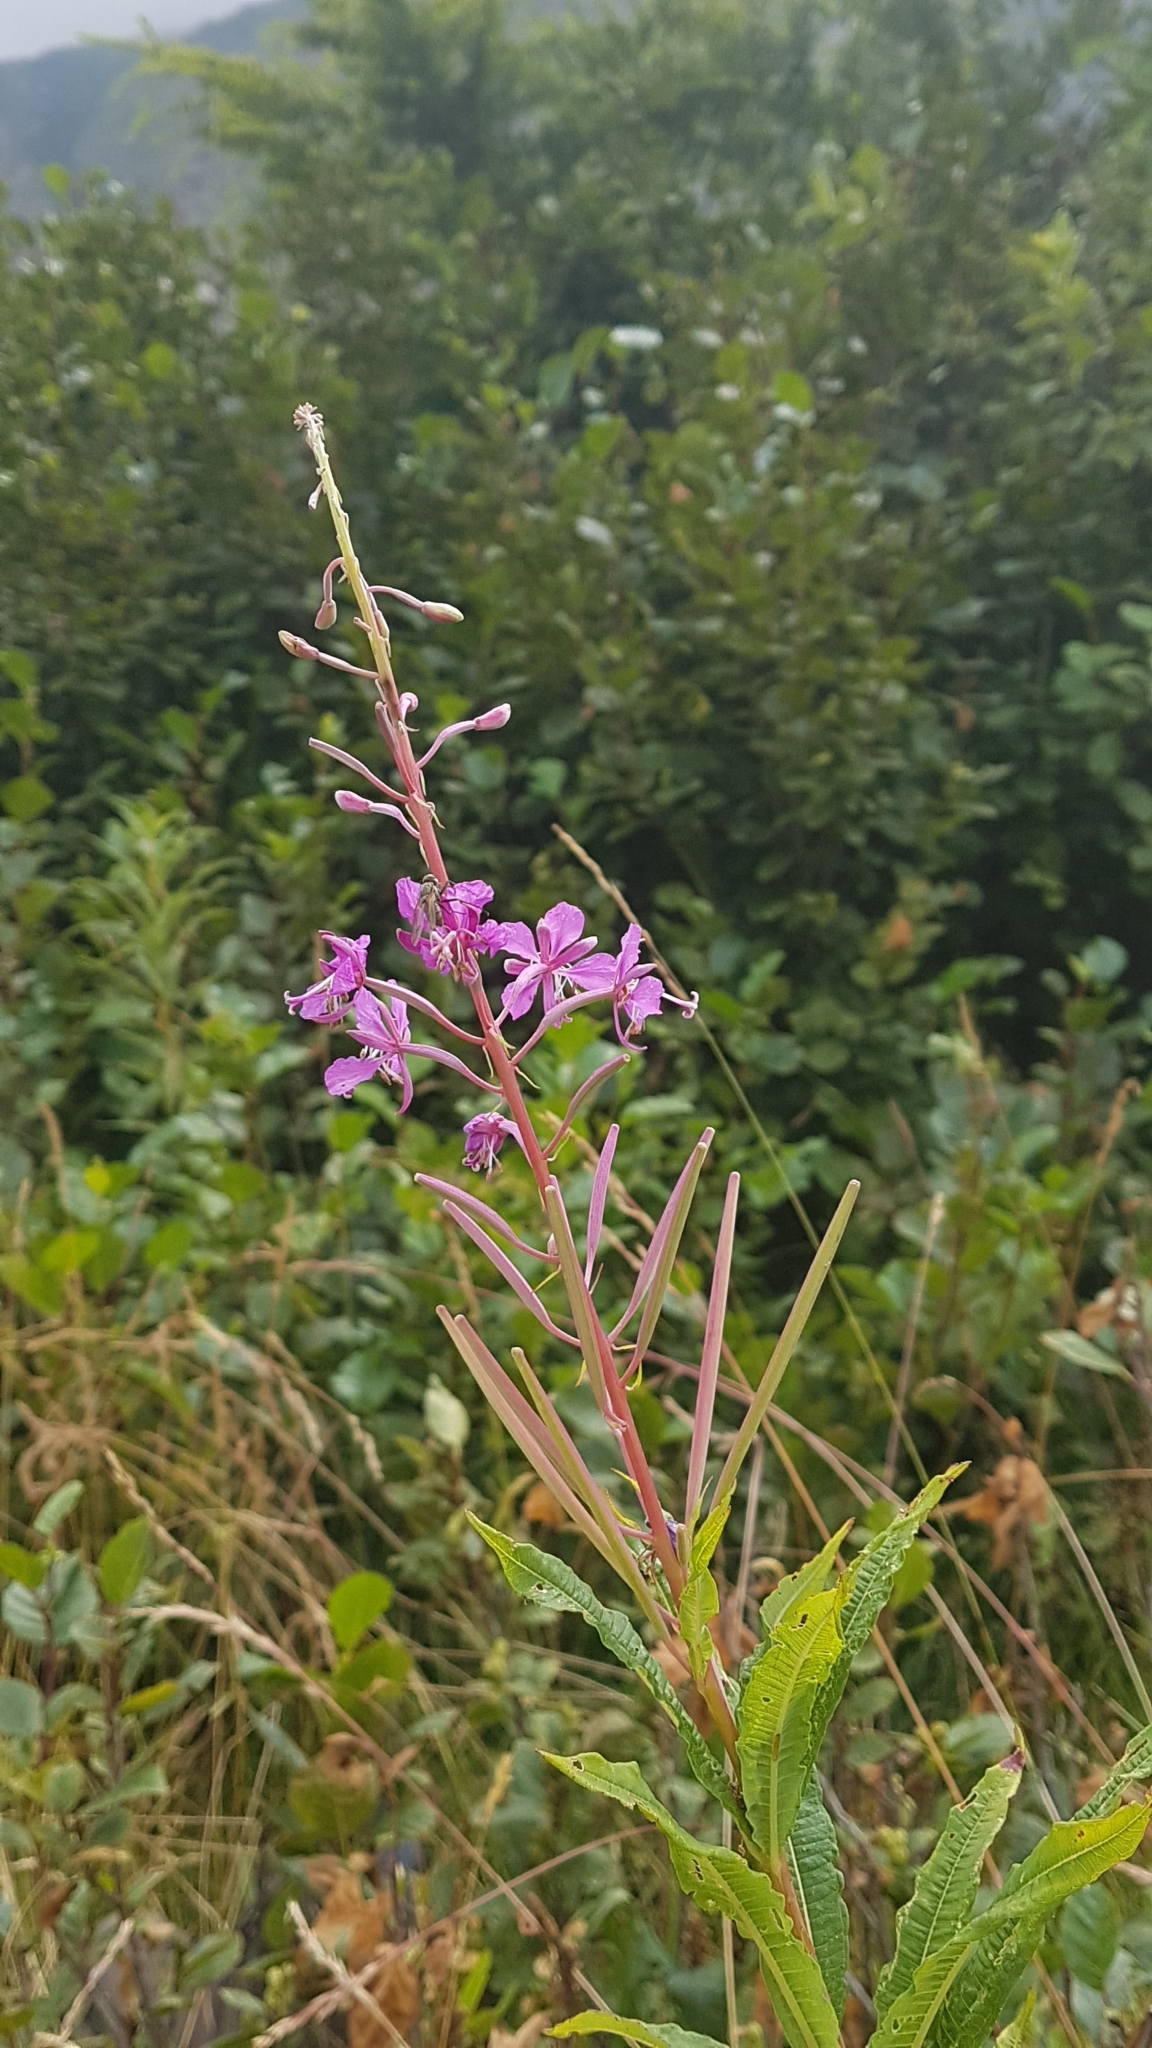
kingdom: Plantae
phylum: Tracheophyta
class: Magnoliopsida
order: Myrtales
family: Onagraceae
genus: Chamaenerion
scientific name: Chamaenerion angustifolium
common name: Fireweed
